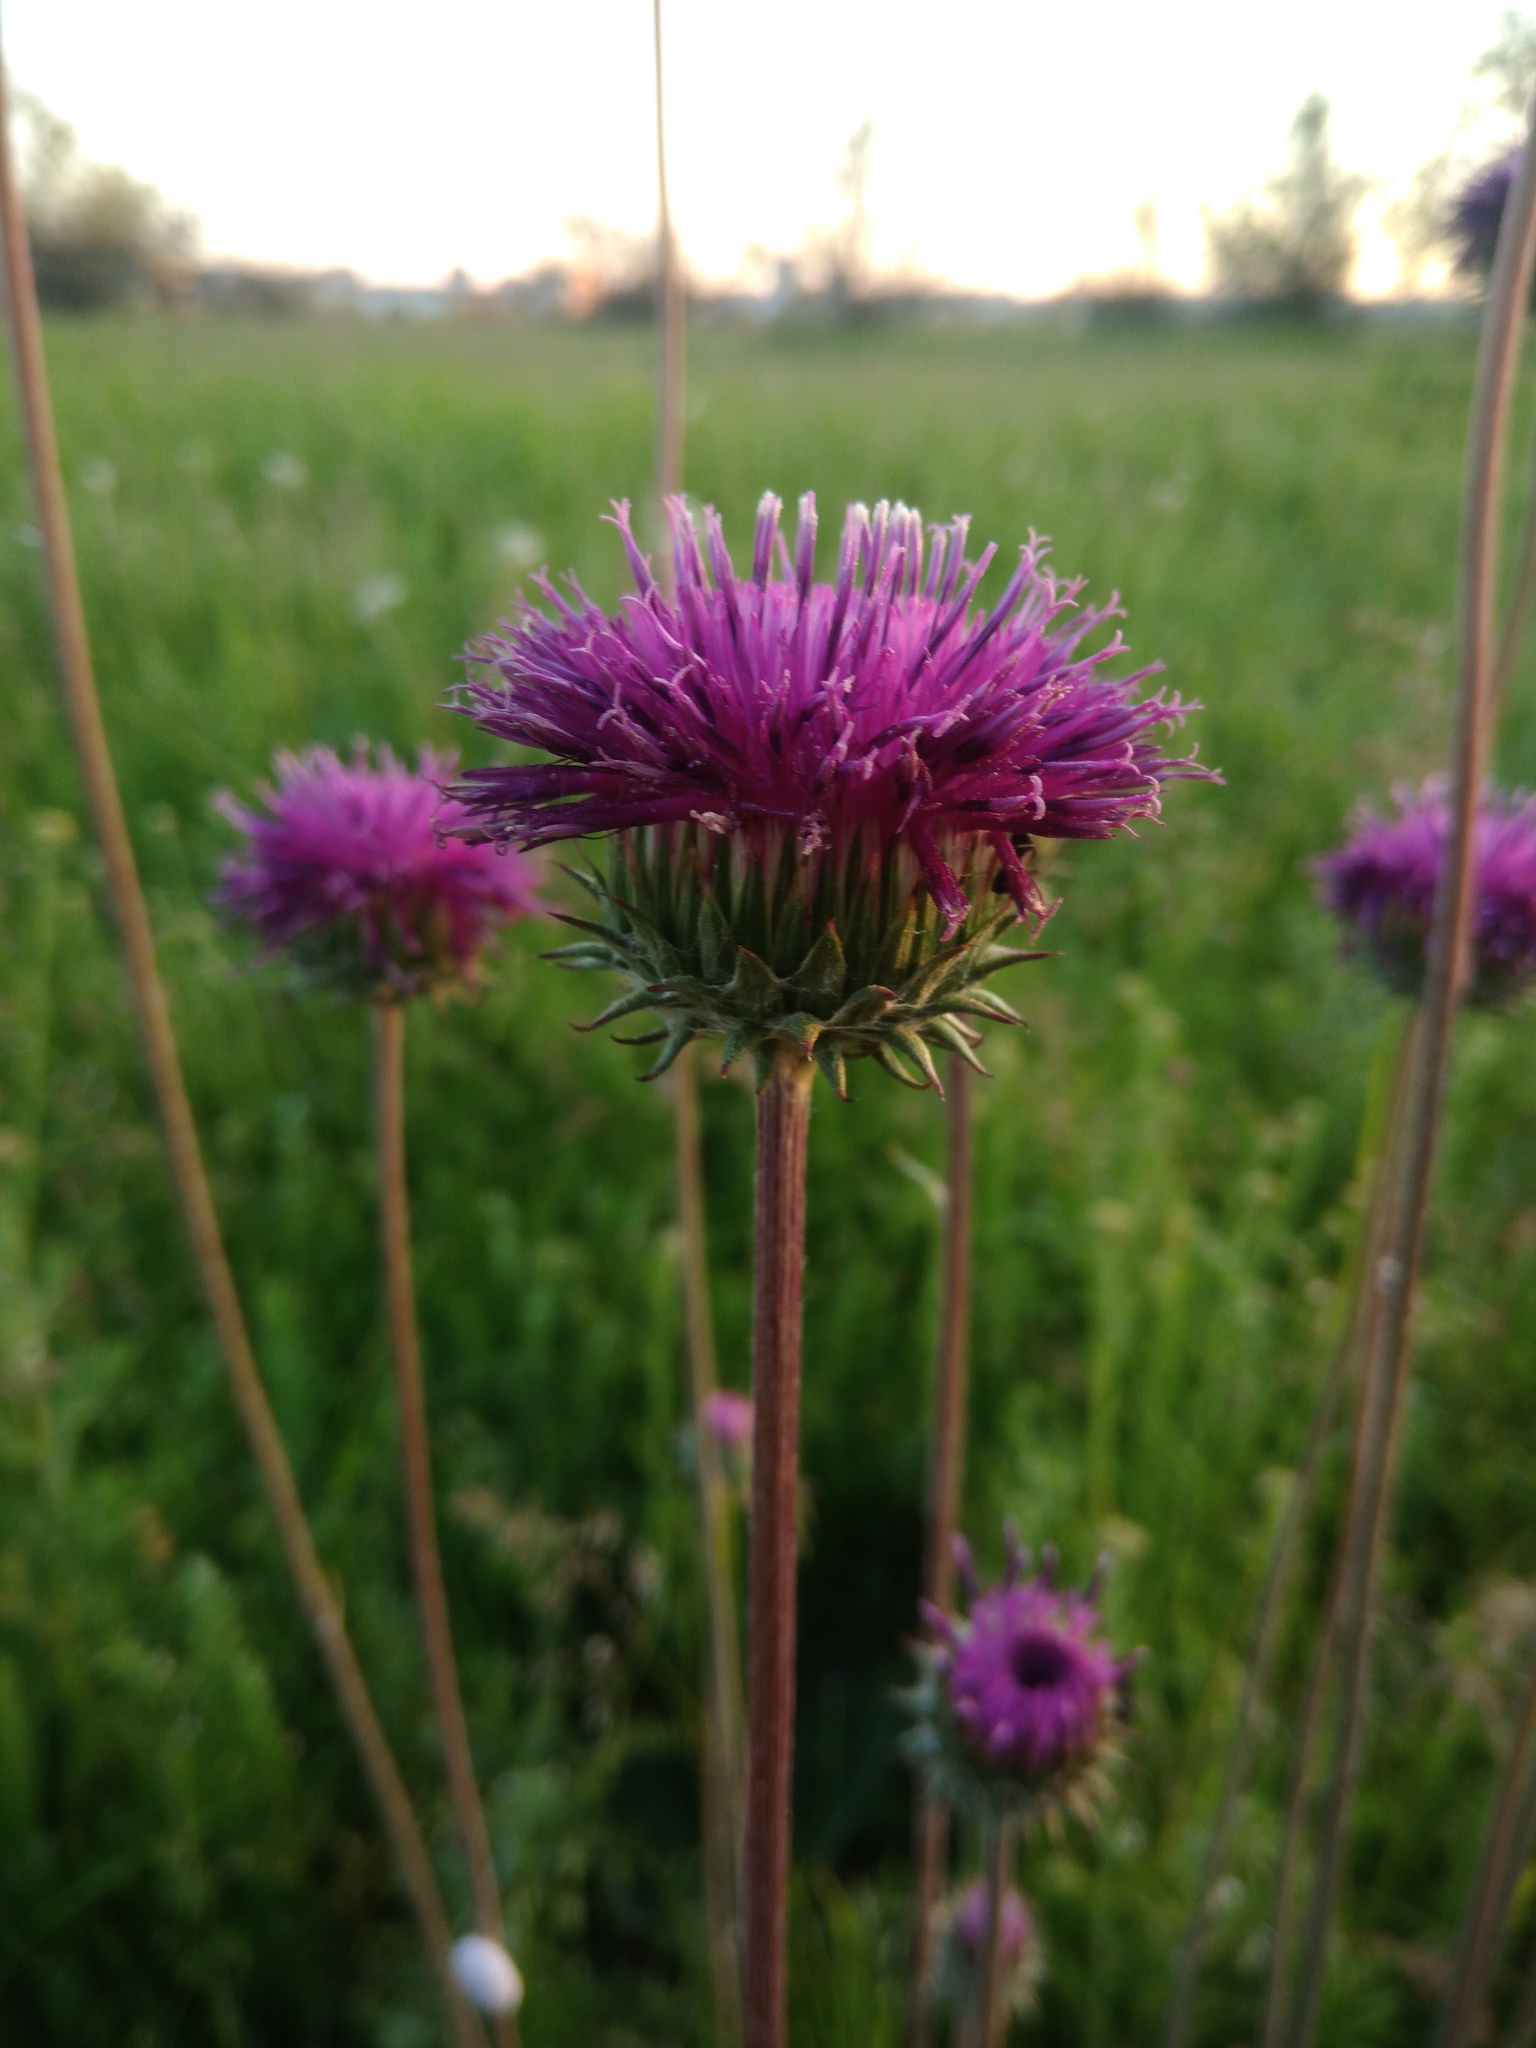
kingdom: Plantae
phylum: Tracheophyta
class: Magnoliopsida
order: Asterales
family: Asteraceae
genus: Jurinea
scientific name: Jurinea calcarea
